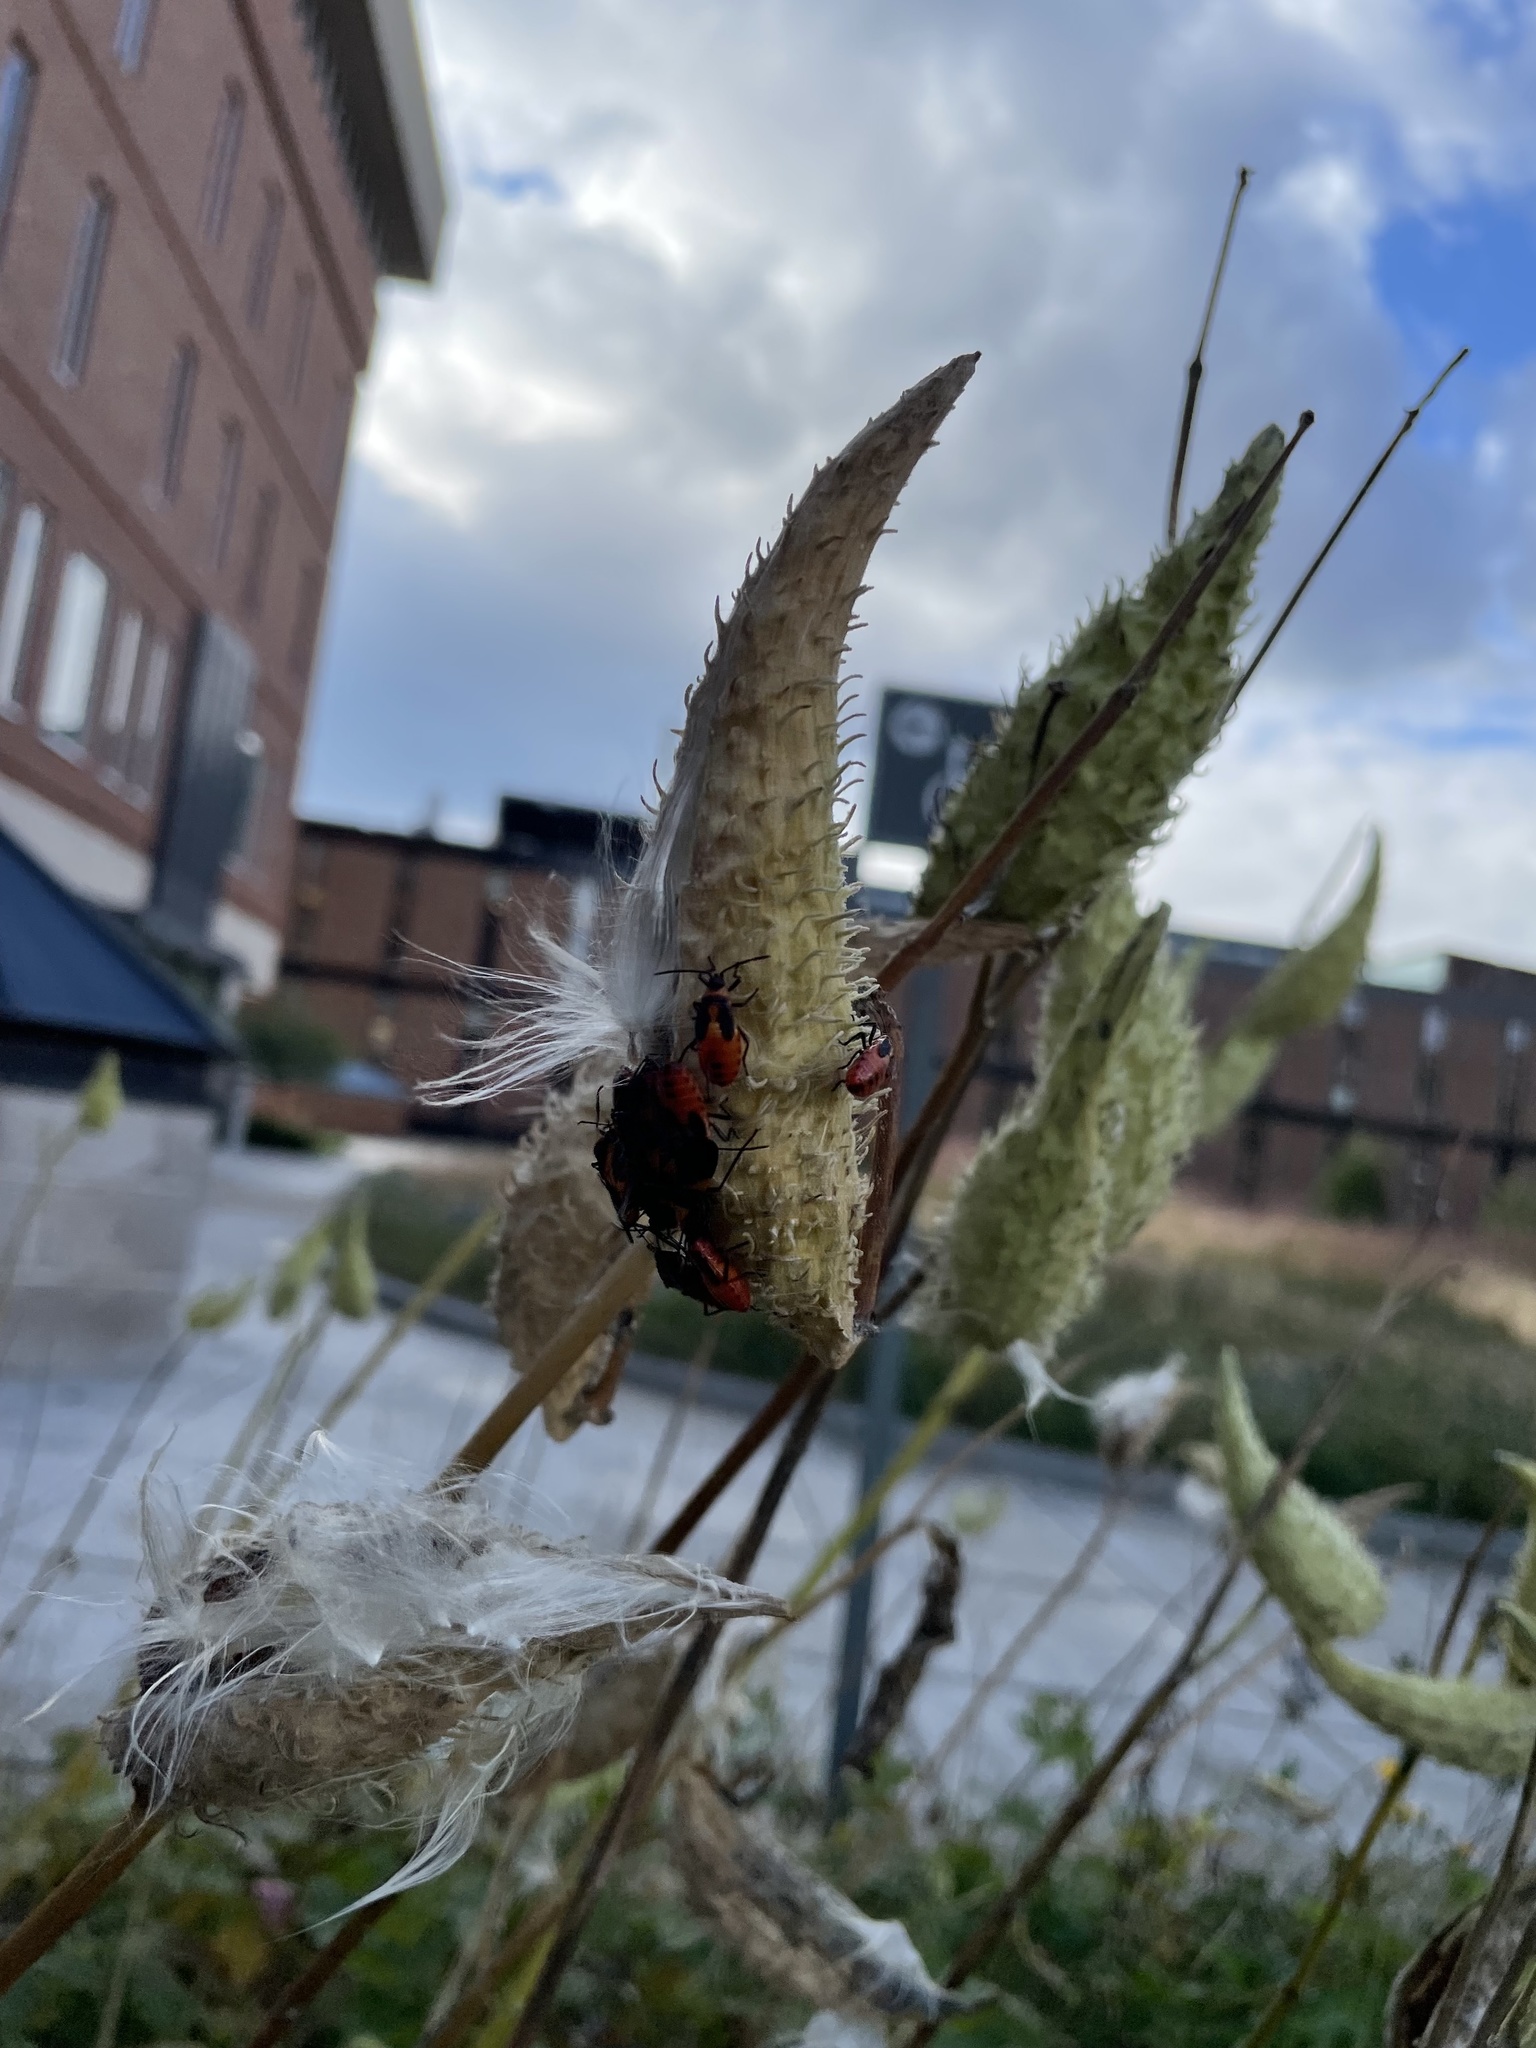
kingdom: Animalia
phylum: Arthropoda
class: Insecta
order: Hemiptera
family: Lygaeidae
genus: Oncopeltus
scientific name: Oncopeltus fasciatus
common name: Large milkweed bug
